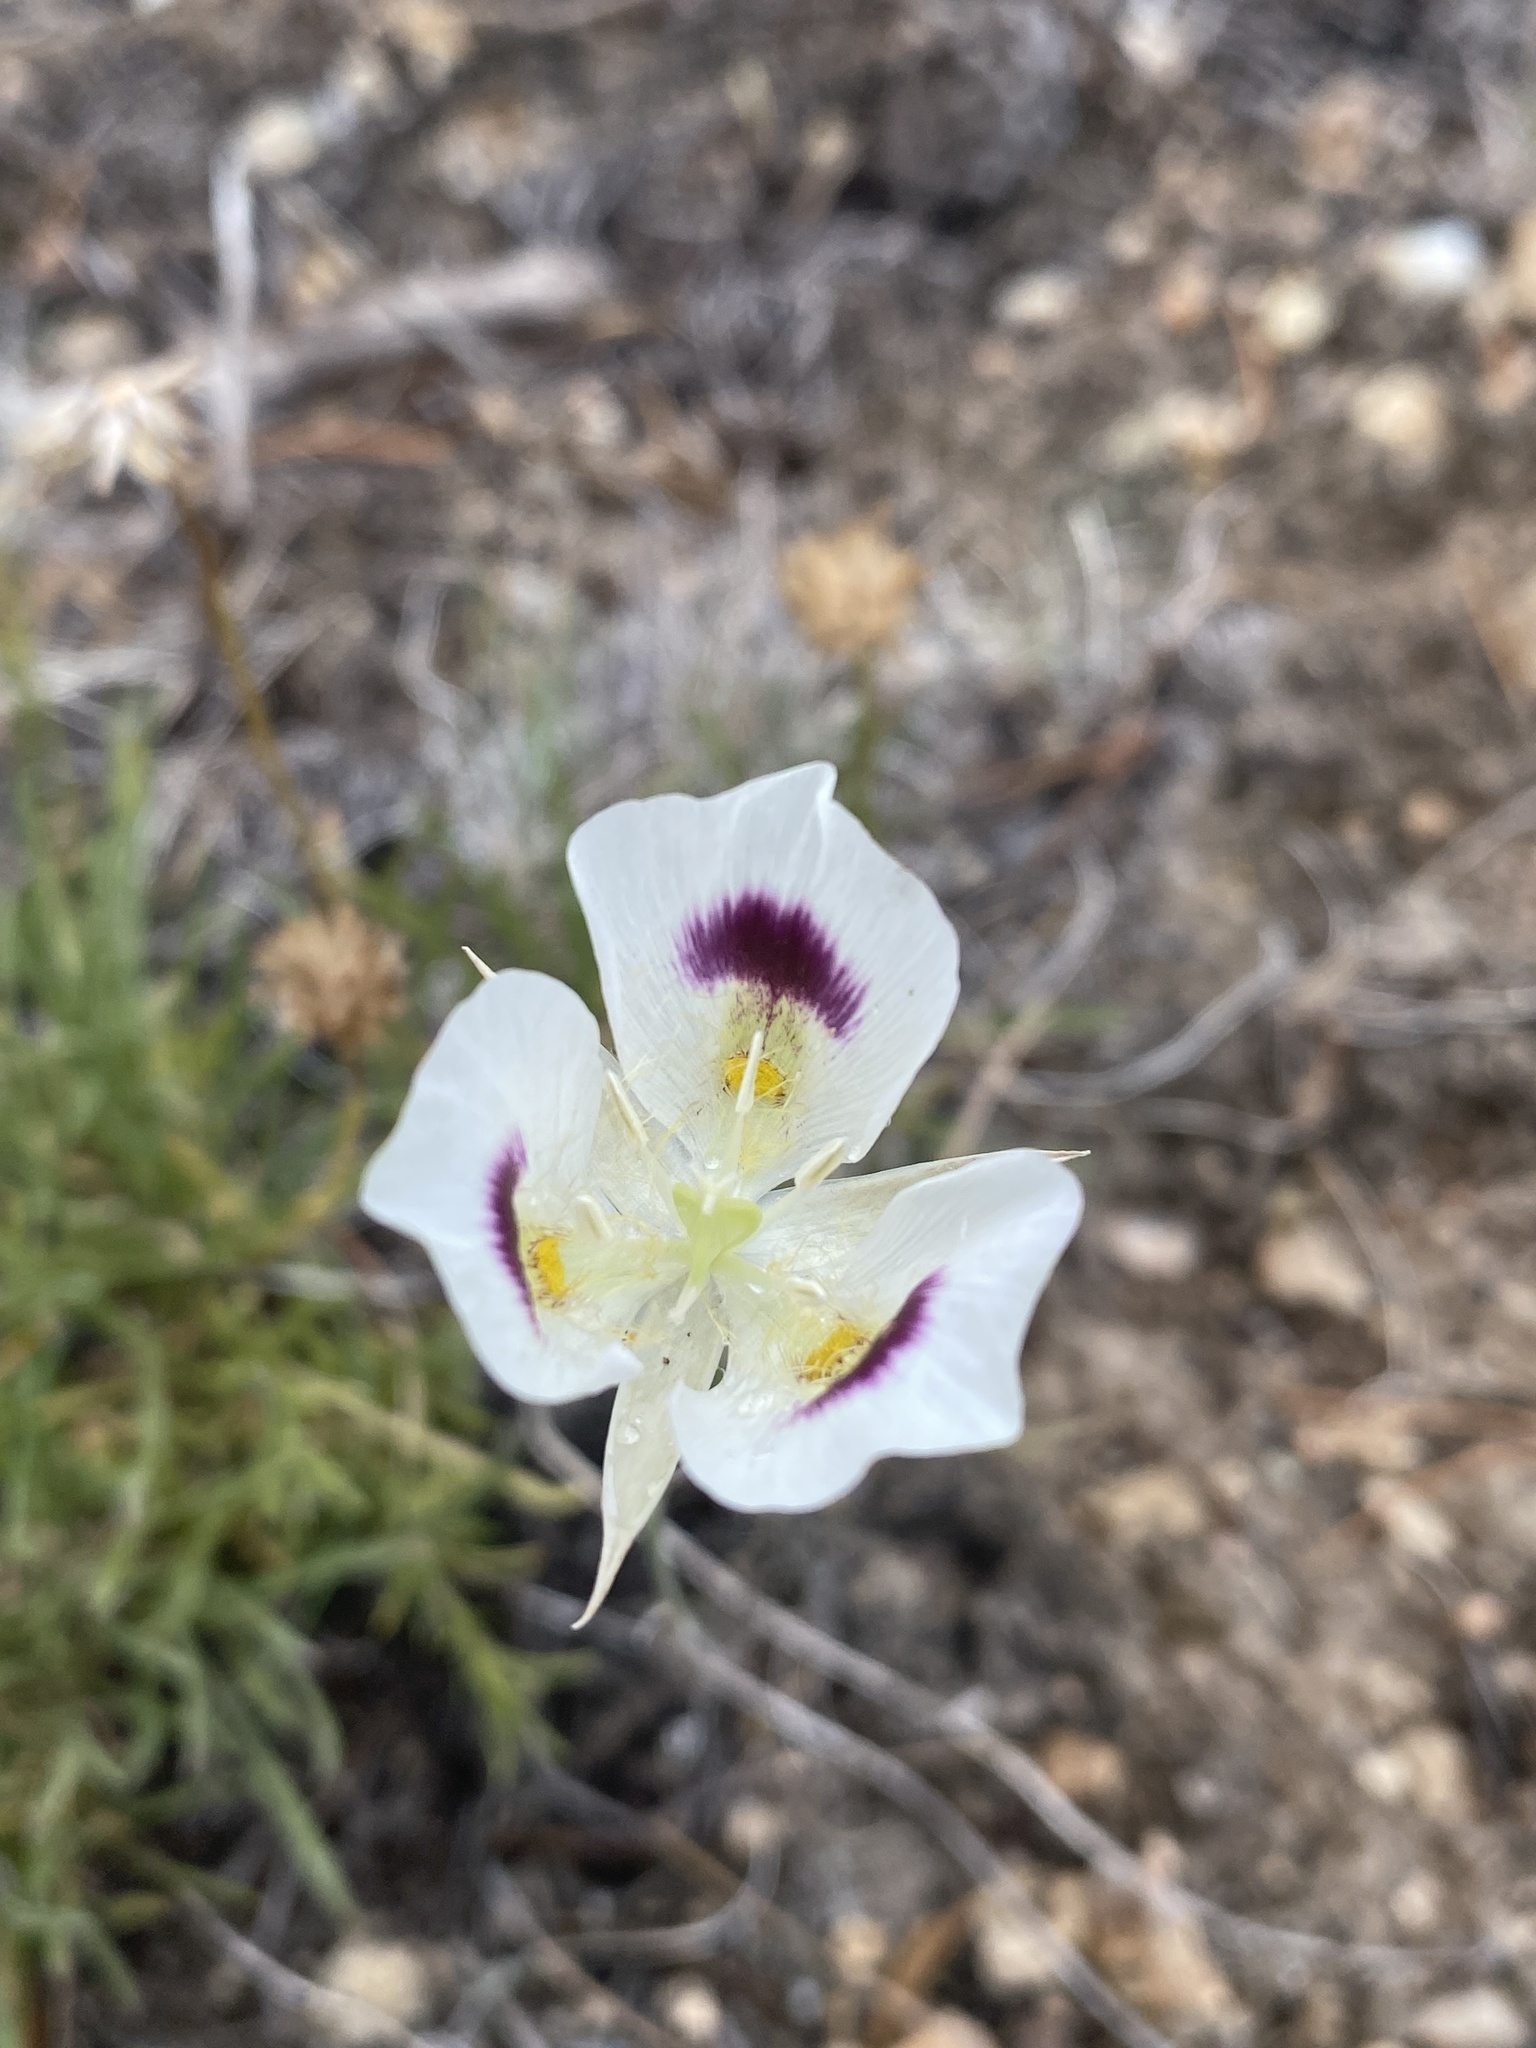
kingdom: Plantae
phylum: Tracheophyta
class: Liliopsida
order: Liliales
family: Liliaceae
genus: Calochortus
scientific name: Calochortus eurycarpus
